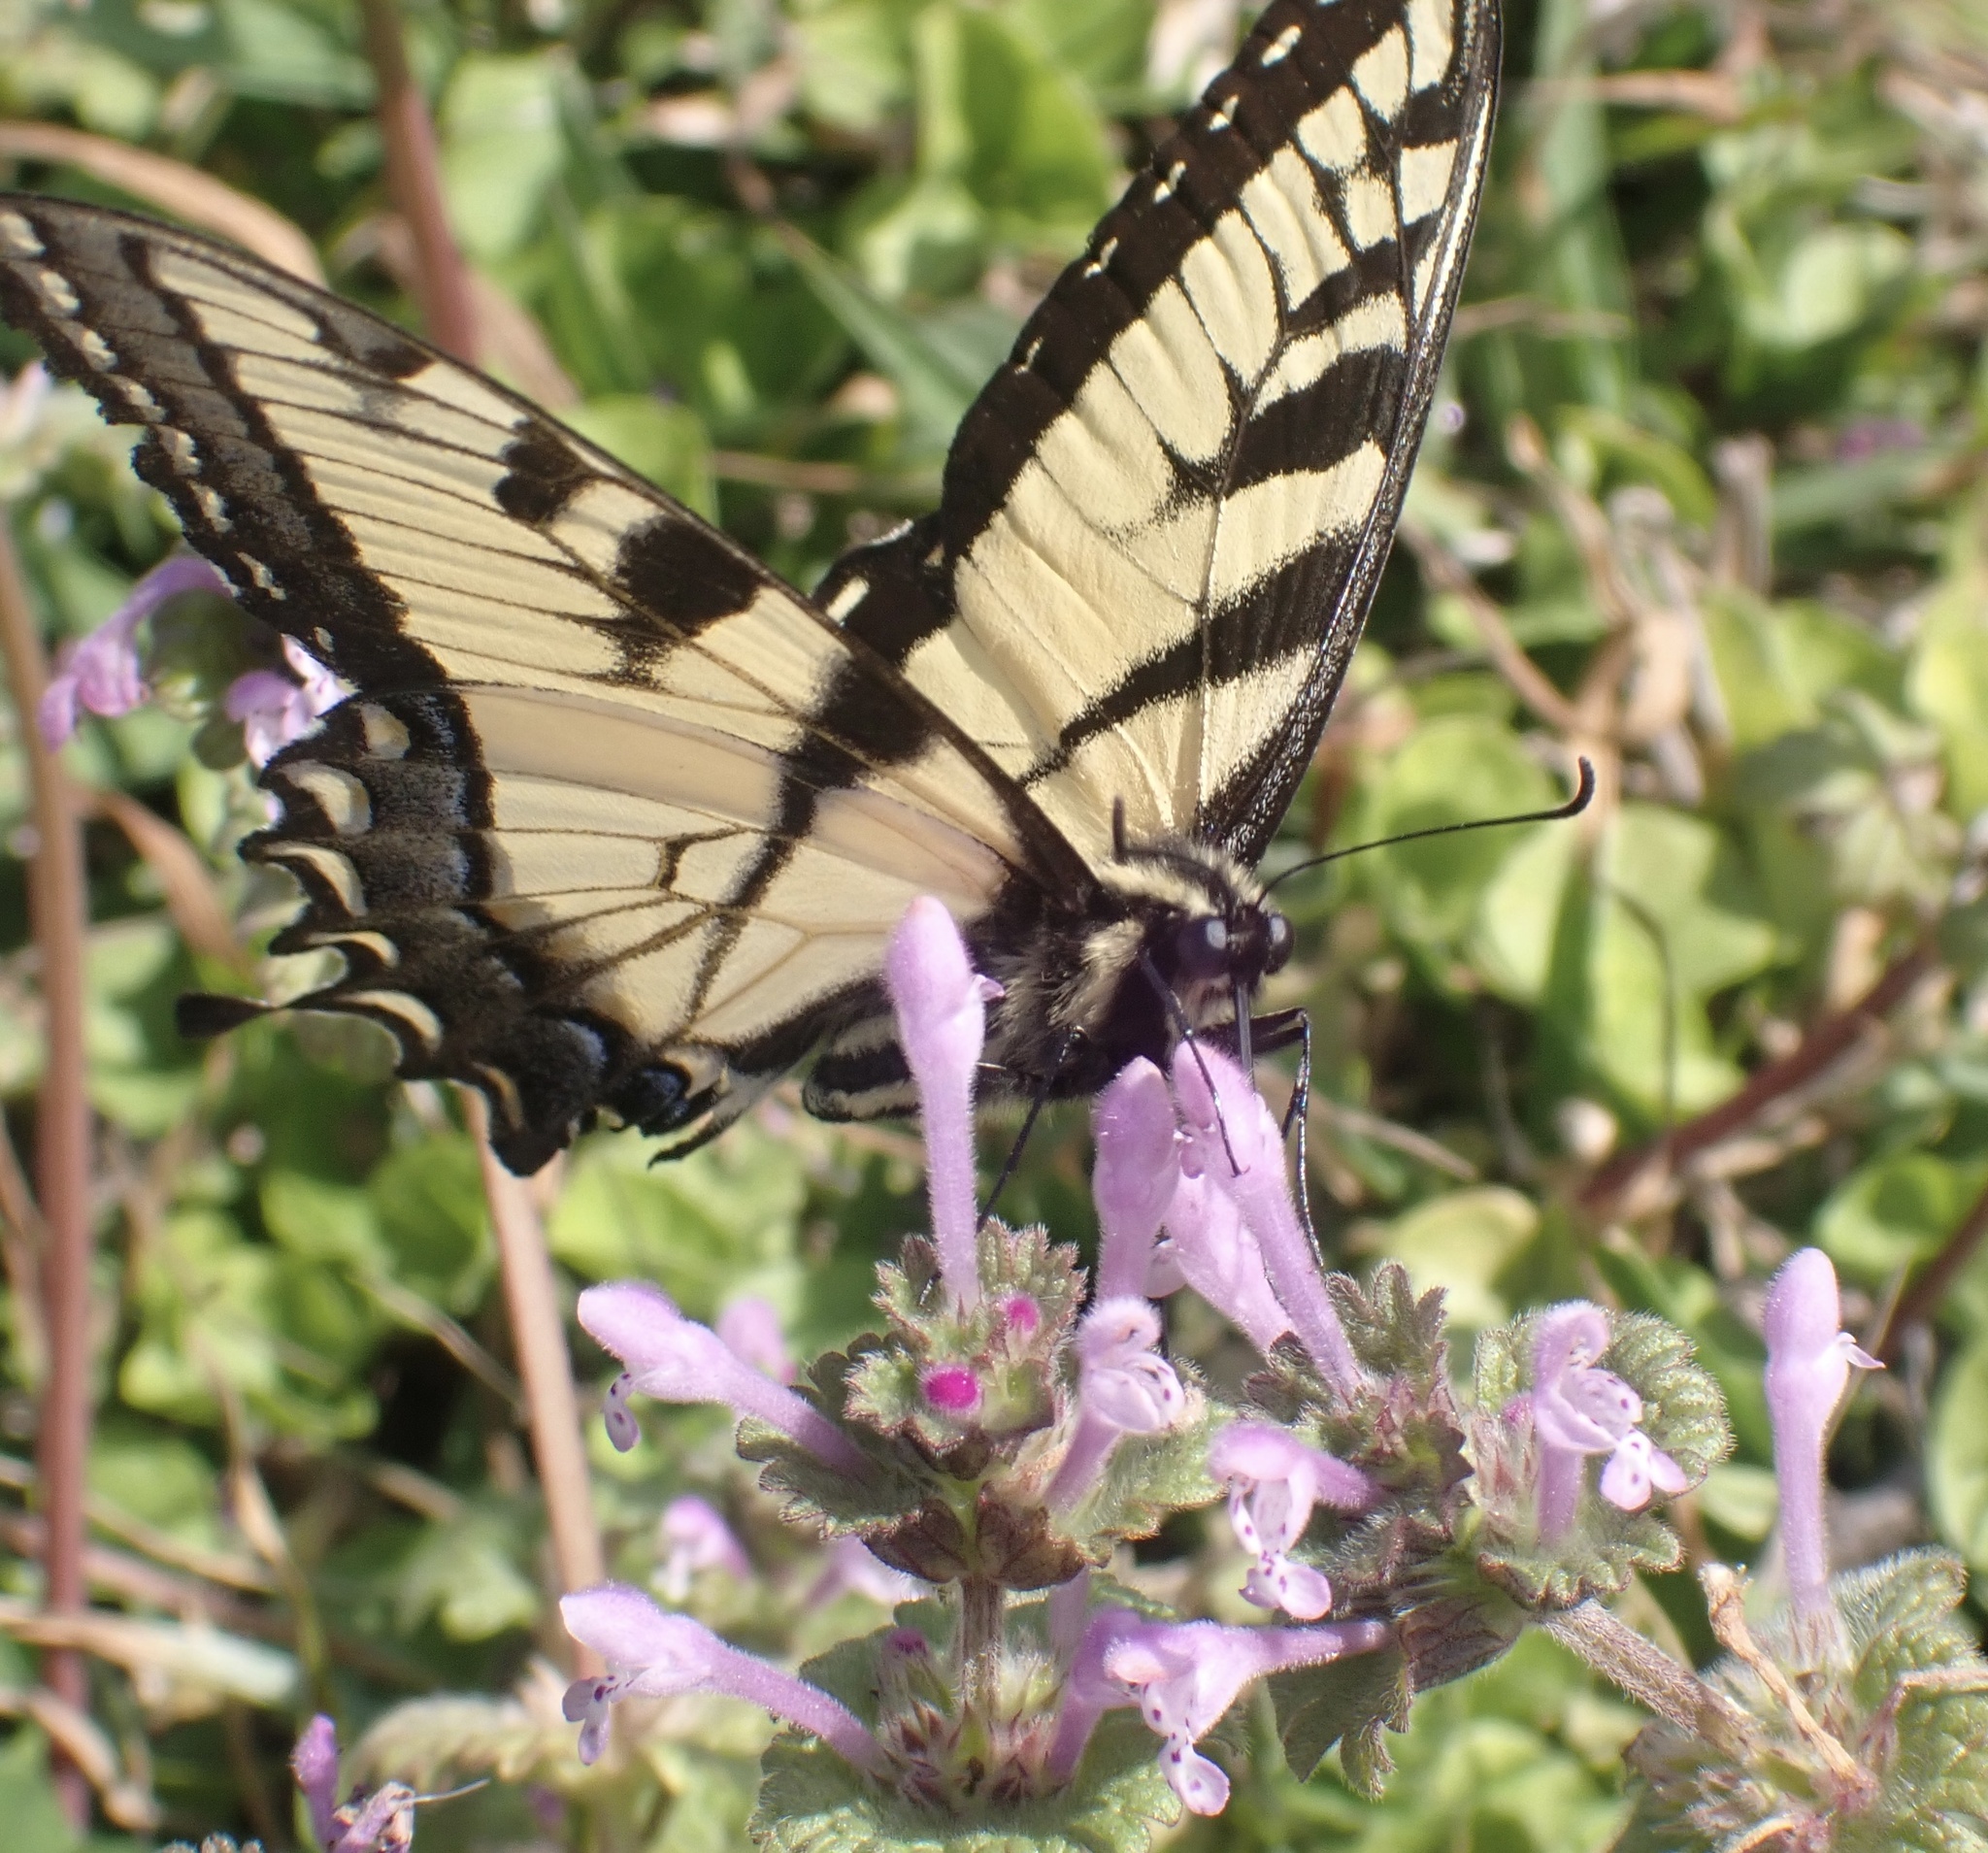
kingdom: Animalia
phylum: Arthropoda
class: Insecta
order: Lepidoptera
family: Papilionidae
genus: Papilio
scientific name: Papilio glaucus
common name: Tiger swallowtail
